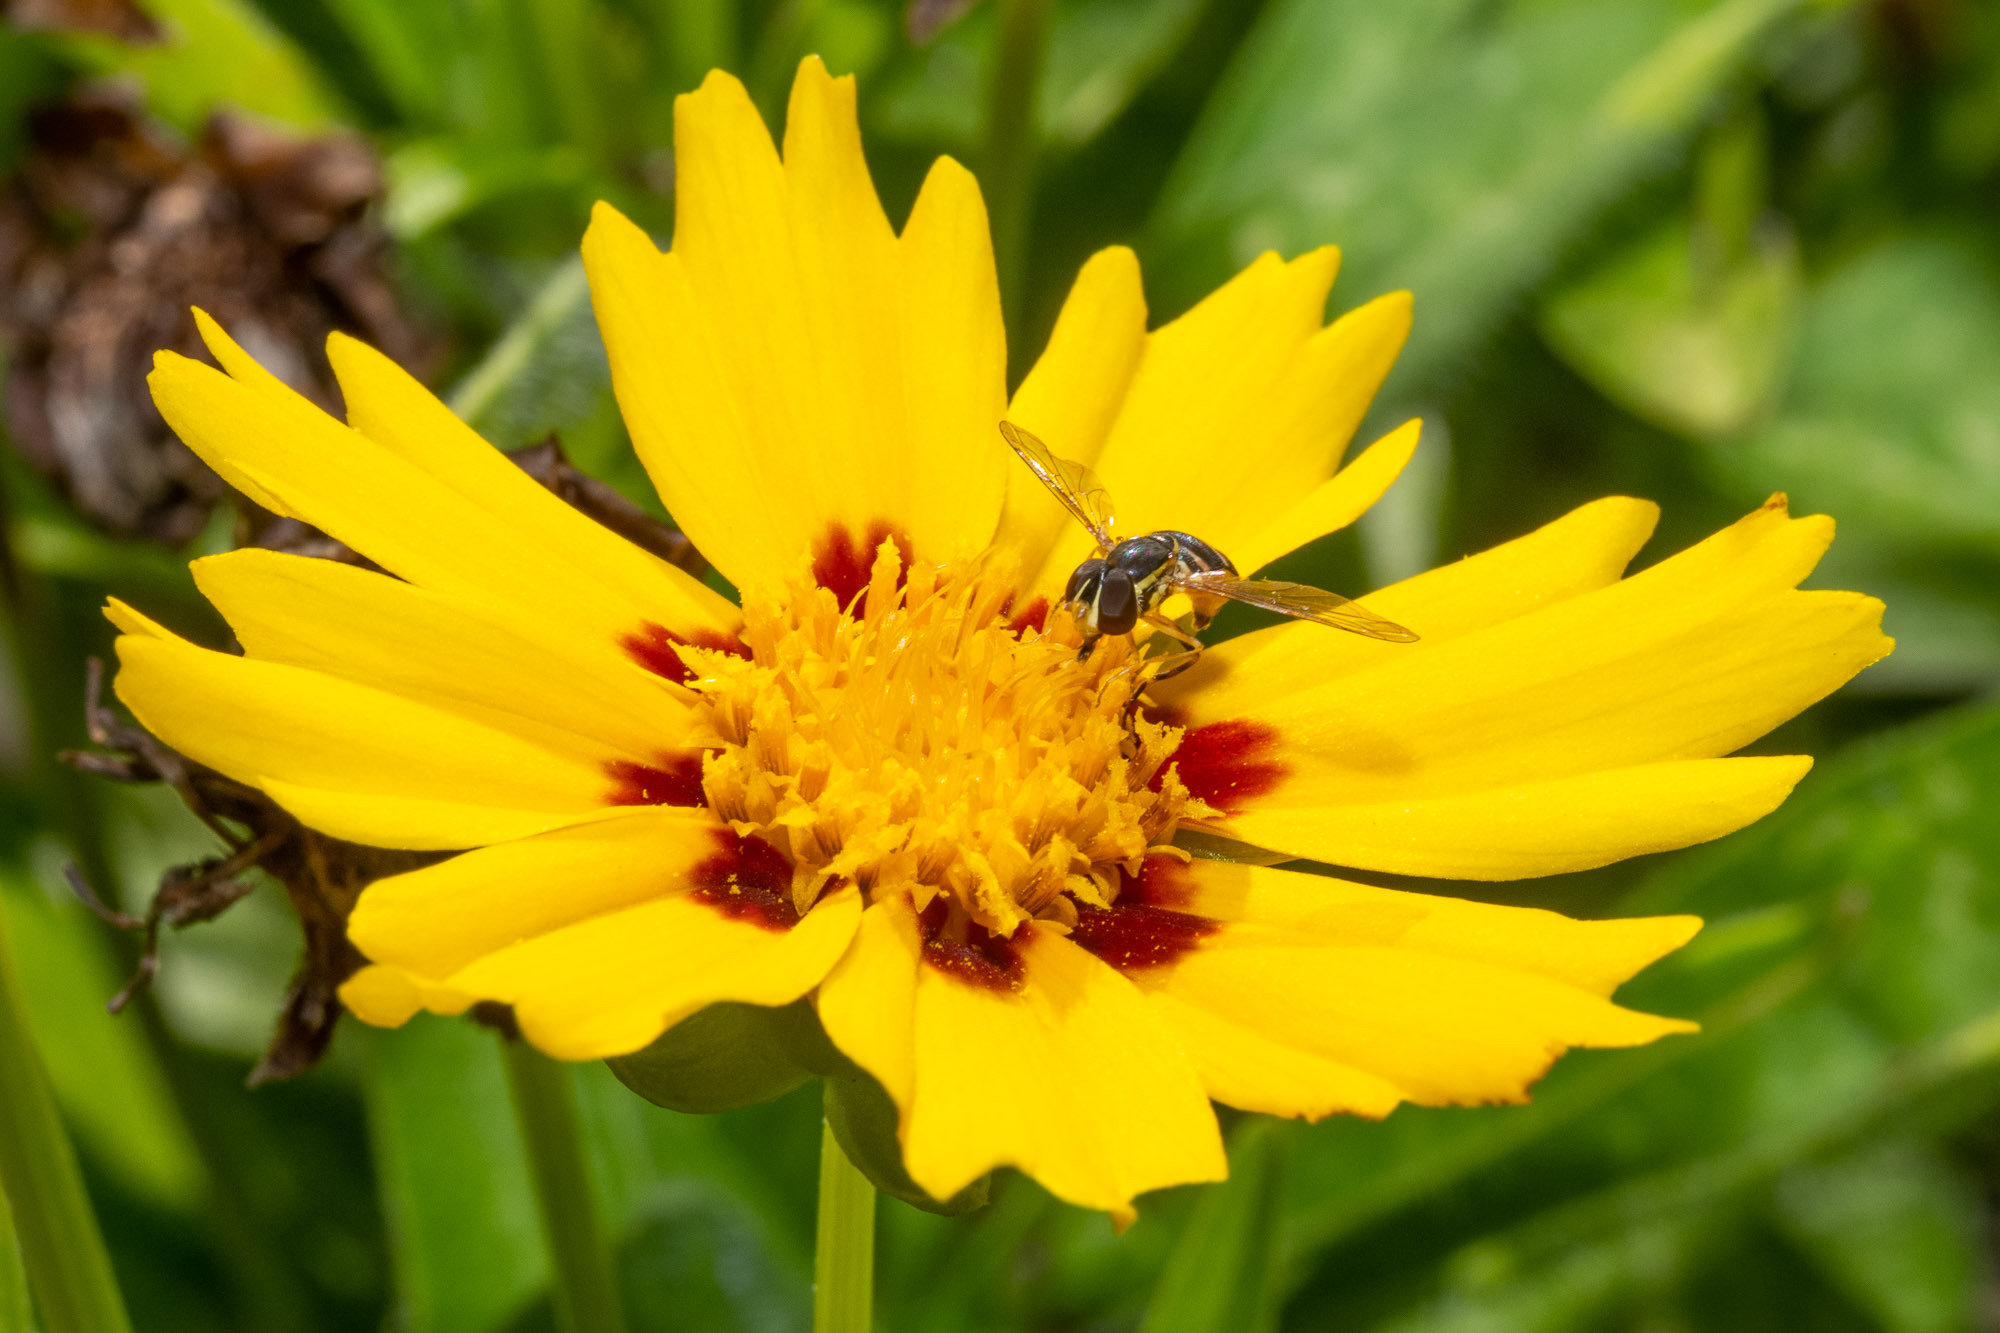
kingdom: Animalia
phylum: Arthropoda
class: Insecta
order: Diptera
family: Syrphidae
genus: Toxomerus
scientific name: Toxomerus occidentalis
